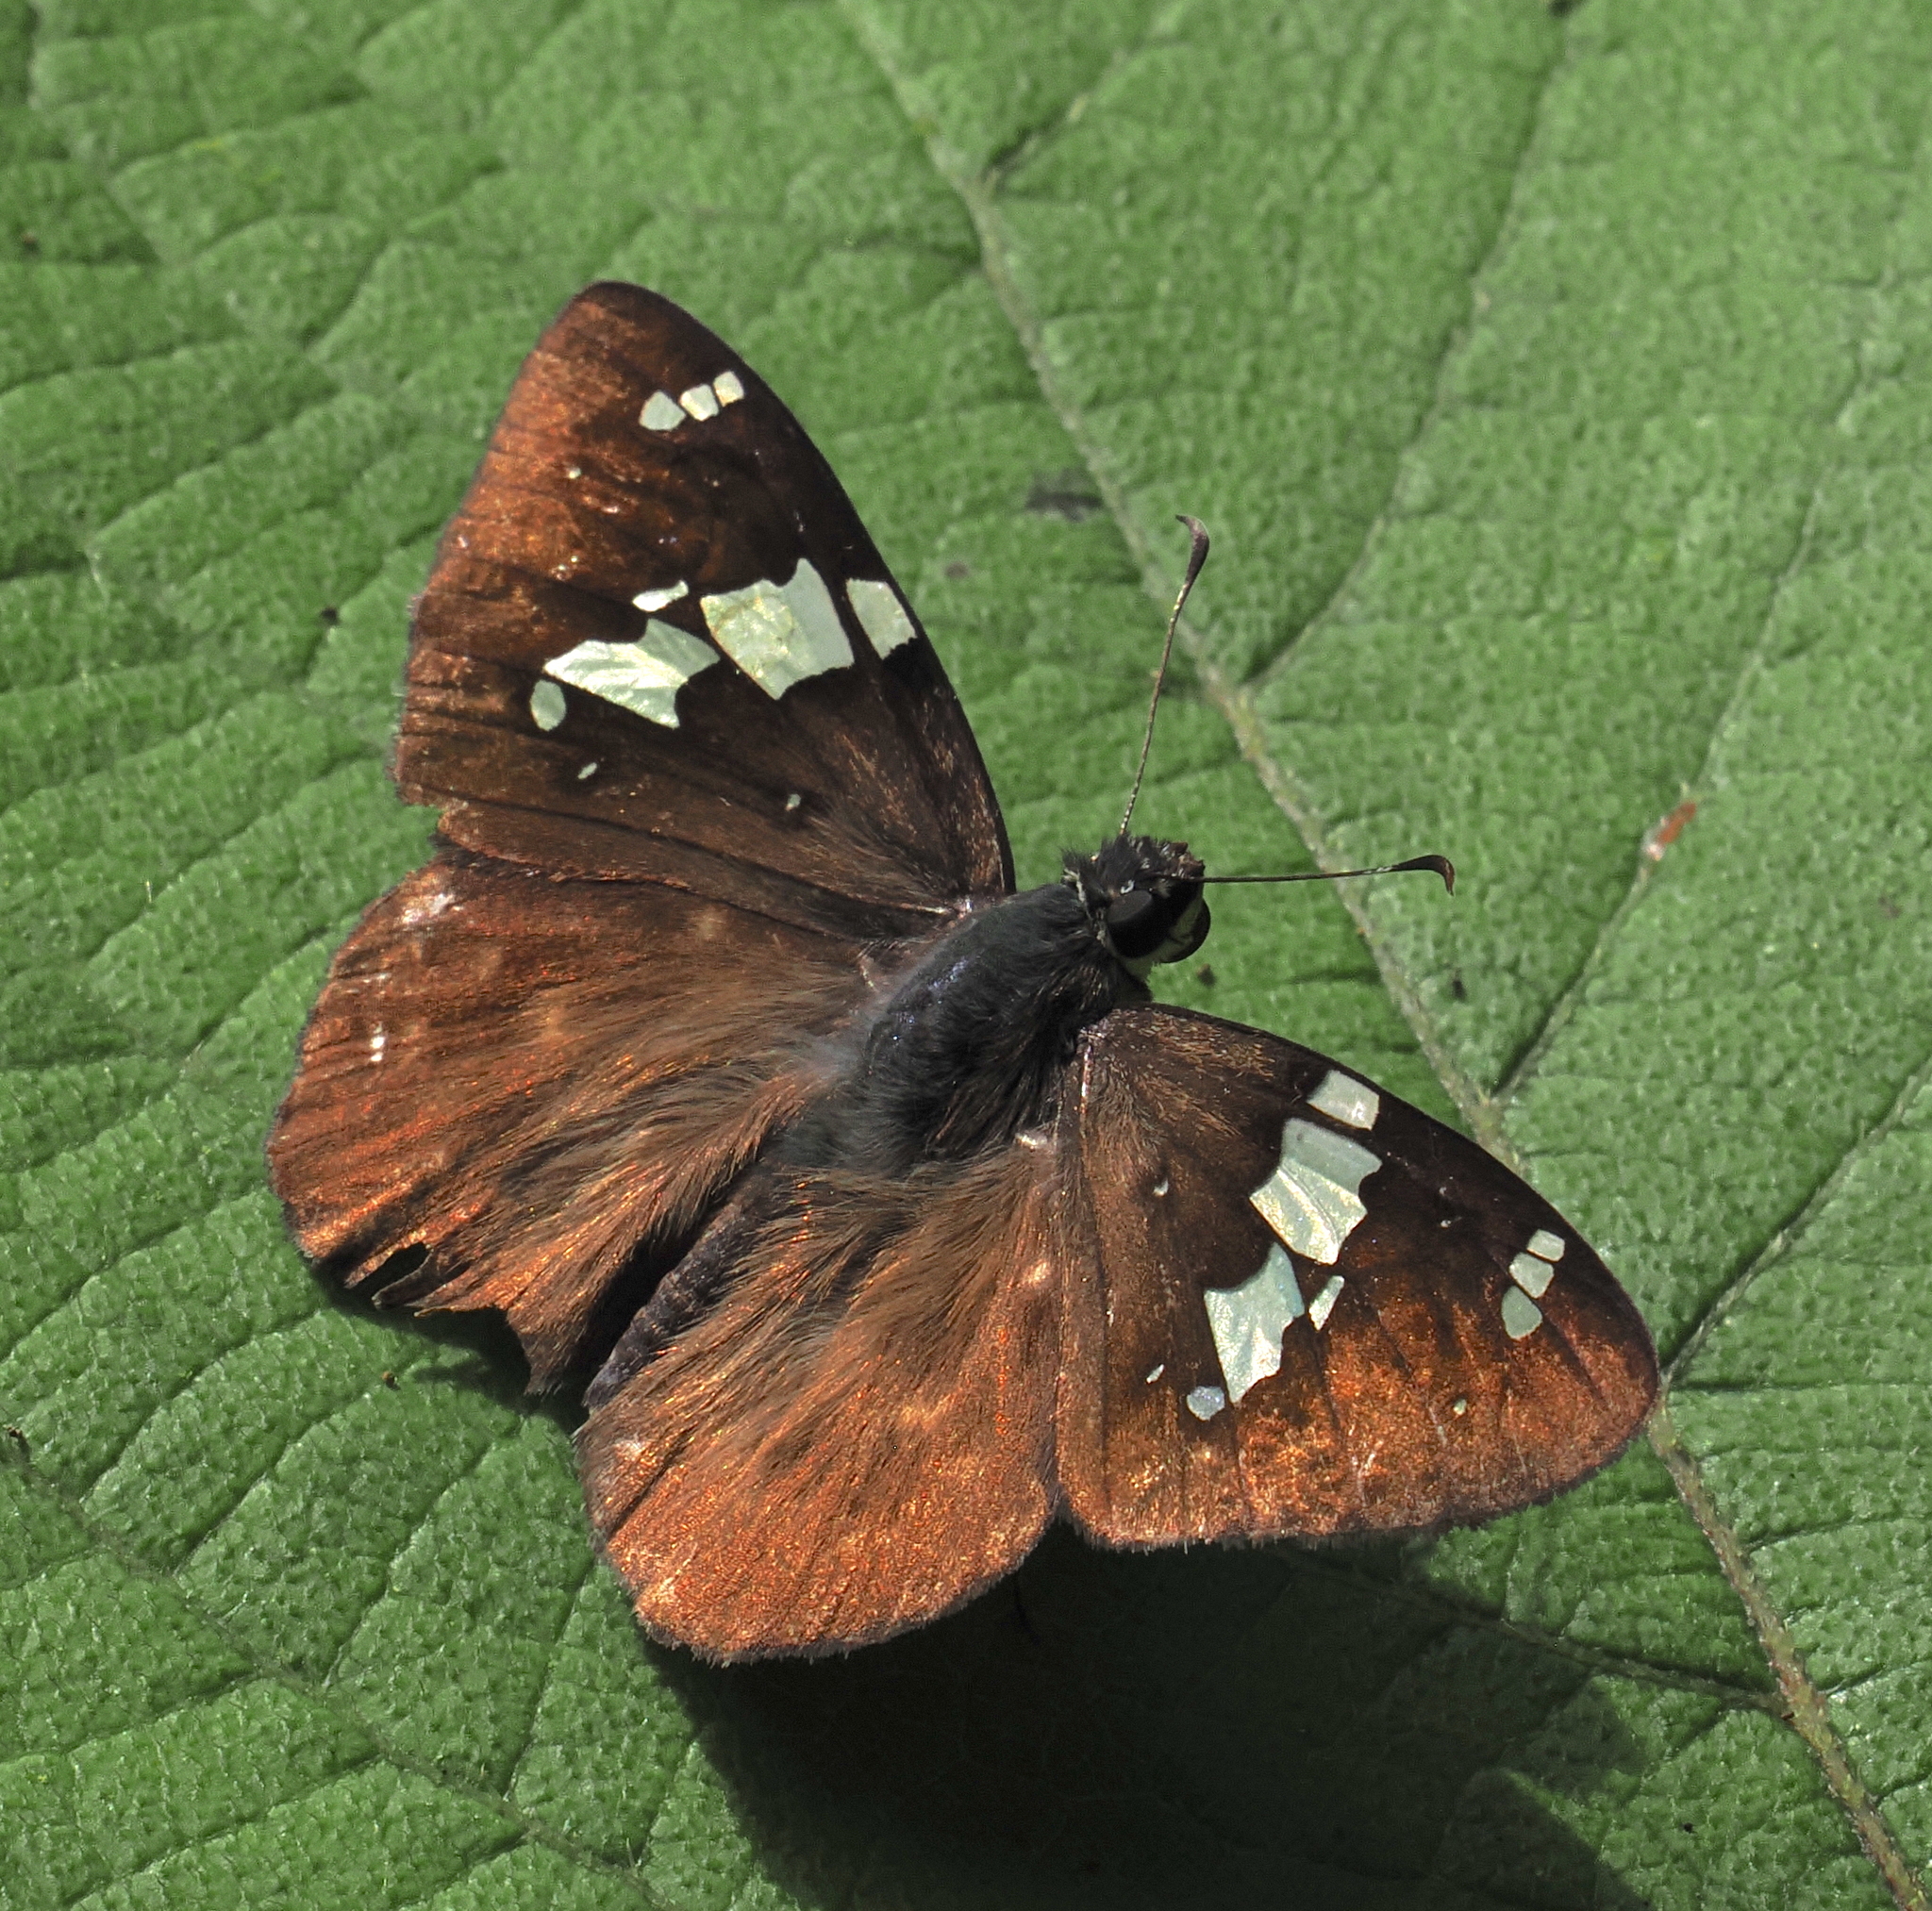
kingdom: Animalia
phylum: Arthropoda
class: Insecta
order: Lepidoptera
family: Hesperiidae
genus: Celaenorrhinus
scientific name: Celaenorrhinus eligius
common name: Eligius flat
